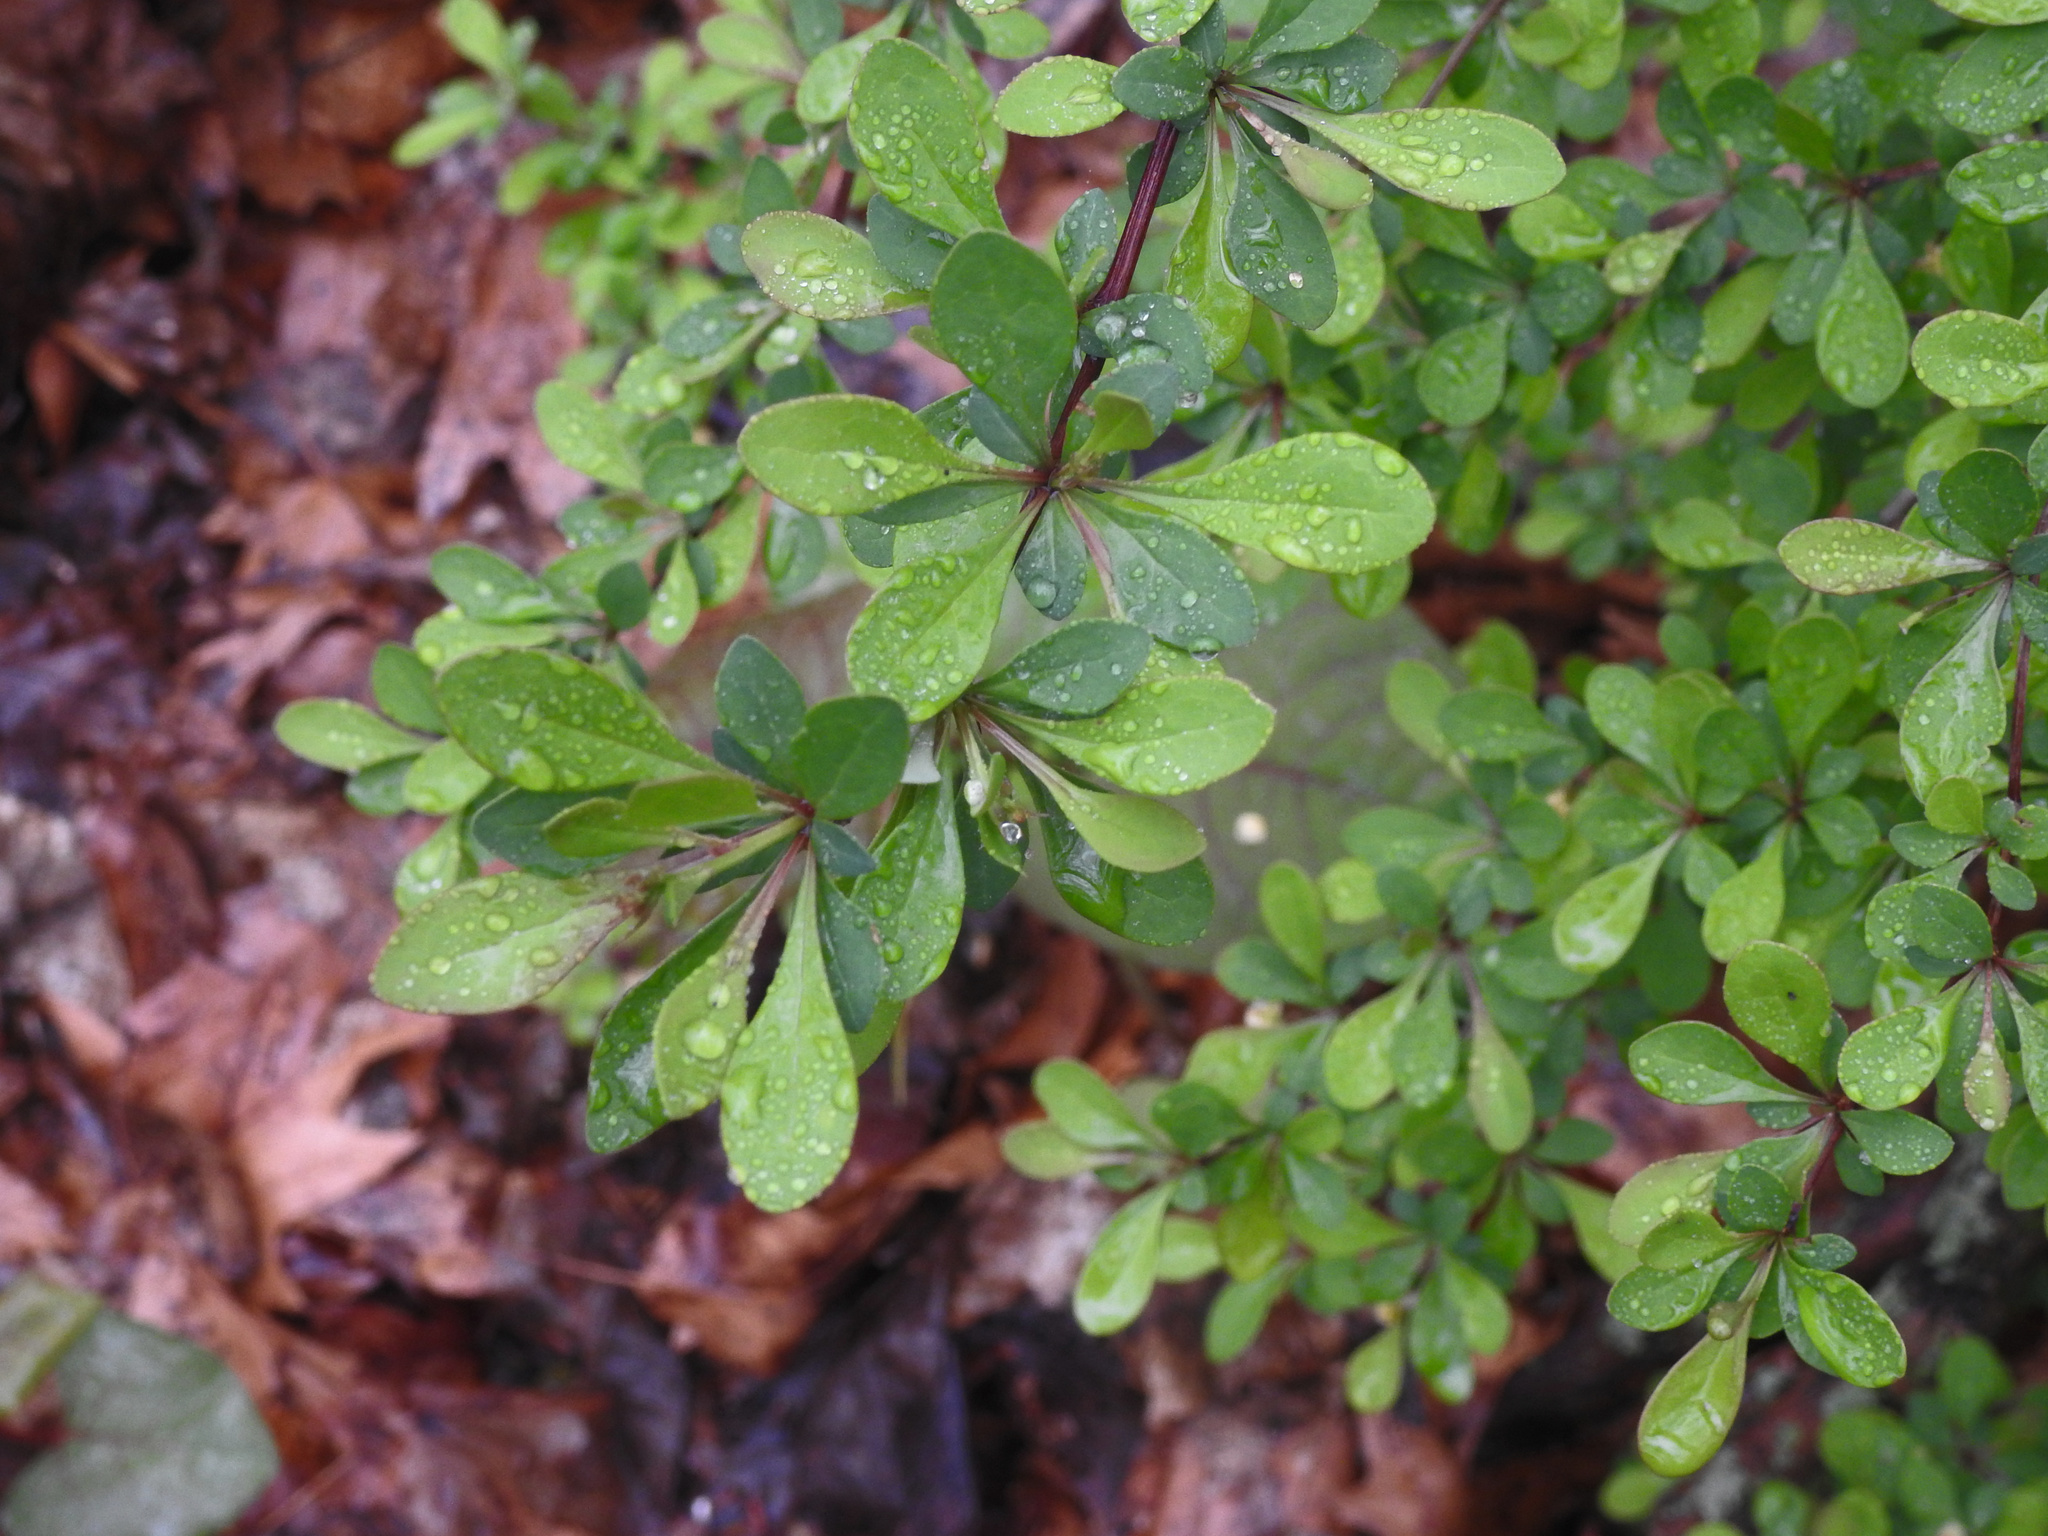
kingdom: Plantae
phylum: Tracheophyta
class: Magnoliopsida
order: Ranunculales
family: Berberidaceae
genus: Berberis
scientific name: Berberis thunbergii
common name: Japanese barberry
